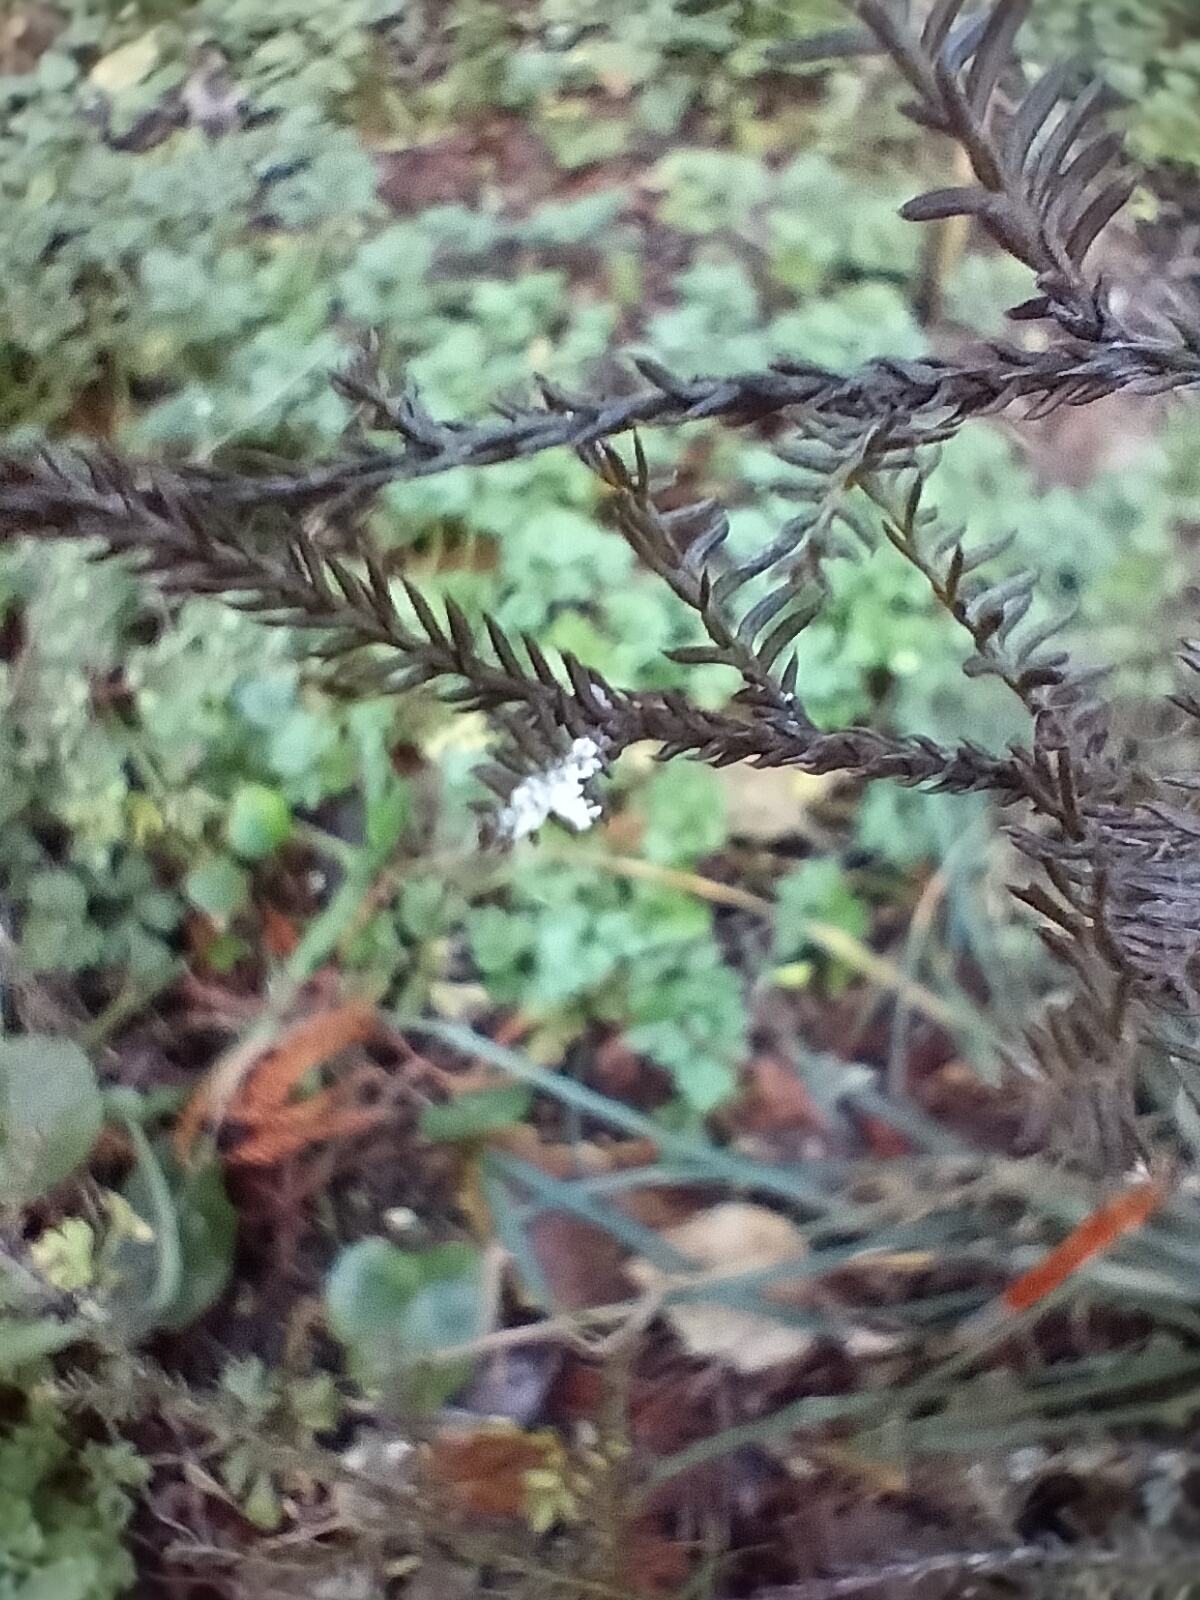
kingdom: Animalia
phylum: Arthropoda
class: Insecta
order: Hemiptera
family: Pseudococcidae
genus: Paraferrisia
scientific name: Paraferrisia podocarpi
